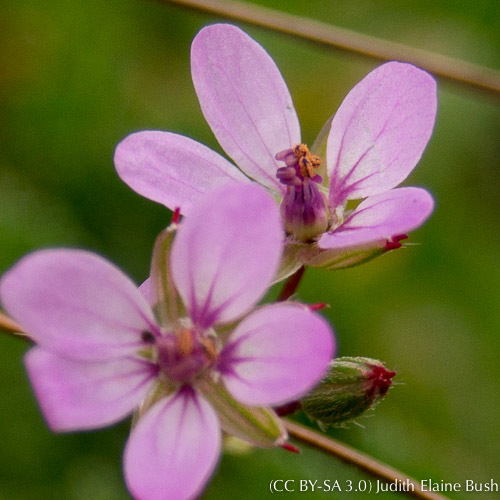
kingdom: Plantae
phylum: Tracheophyta
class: Magnoliopsida
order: Geraniales
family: Geraniaceae
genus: Erodium
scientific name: Erodium cicutarium
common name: Common stork's-bill
